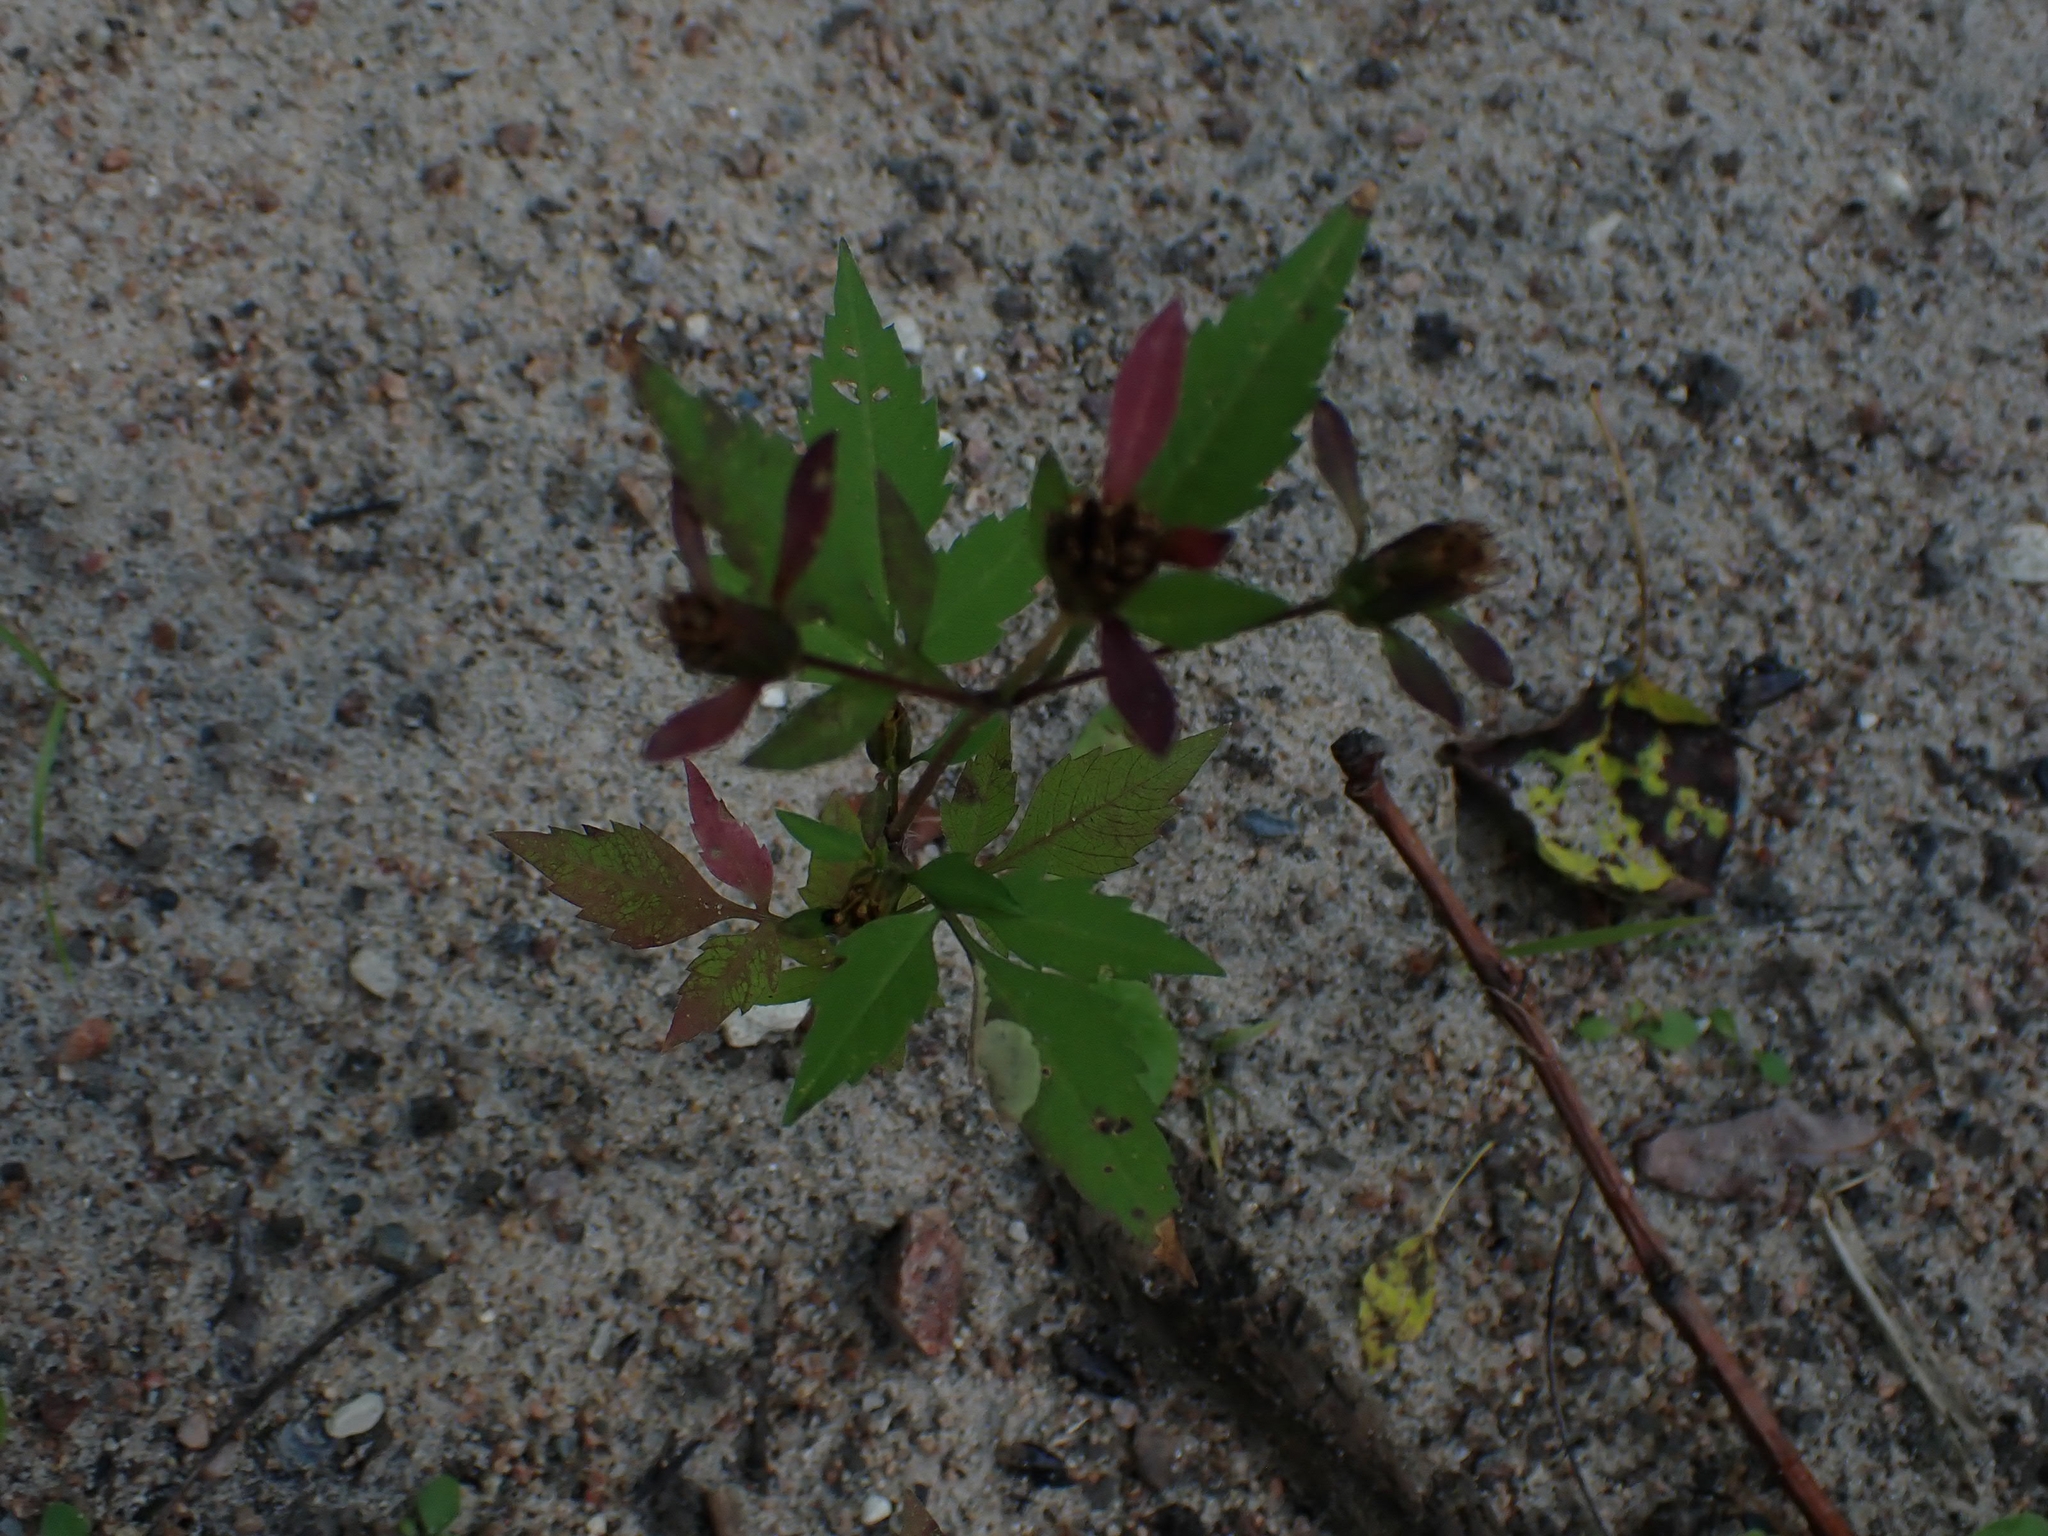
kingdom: Plantae
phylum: Tracheophyta
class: Magnoliopsida
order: Asterales
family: Asteraceae
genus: Bidens
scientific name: Bidens frondosa
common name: Beggarticks
